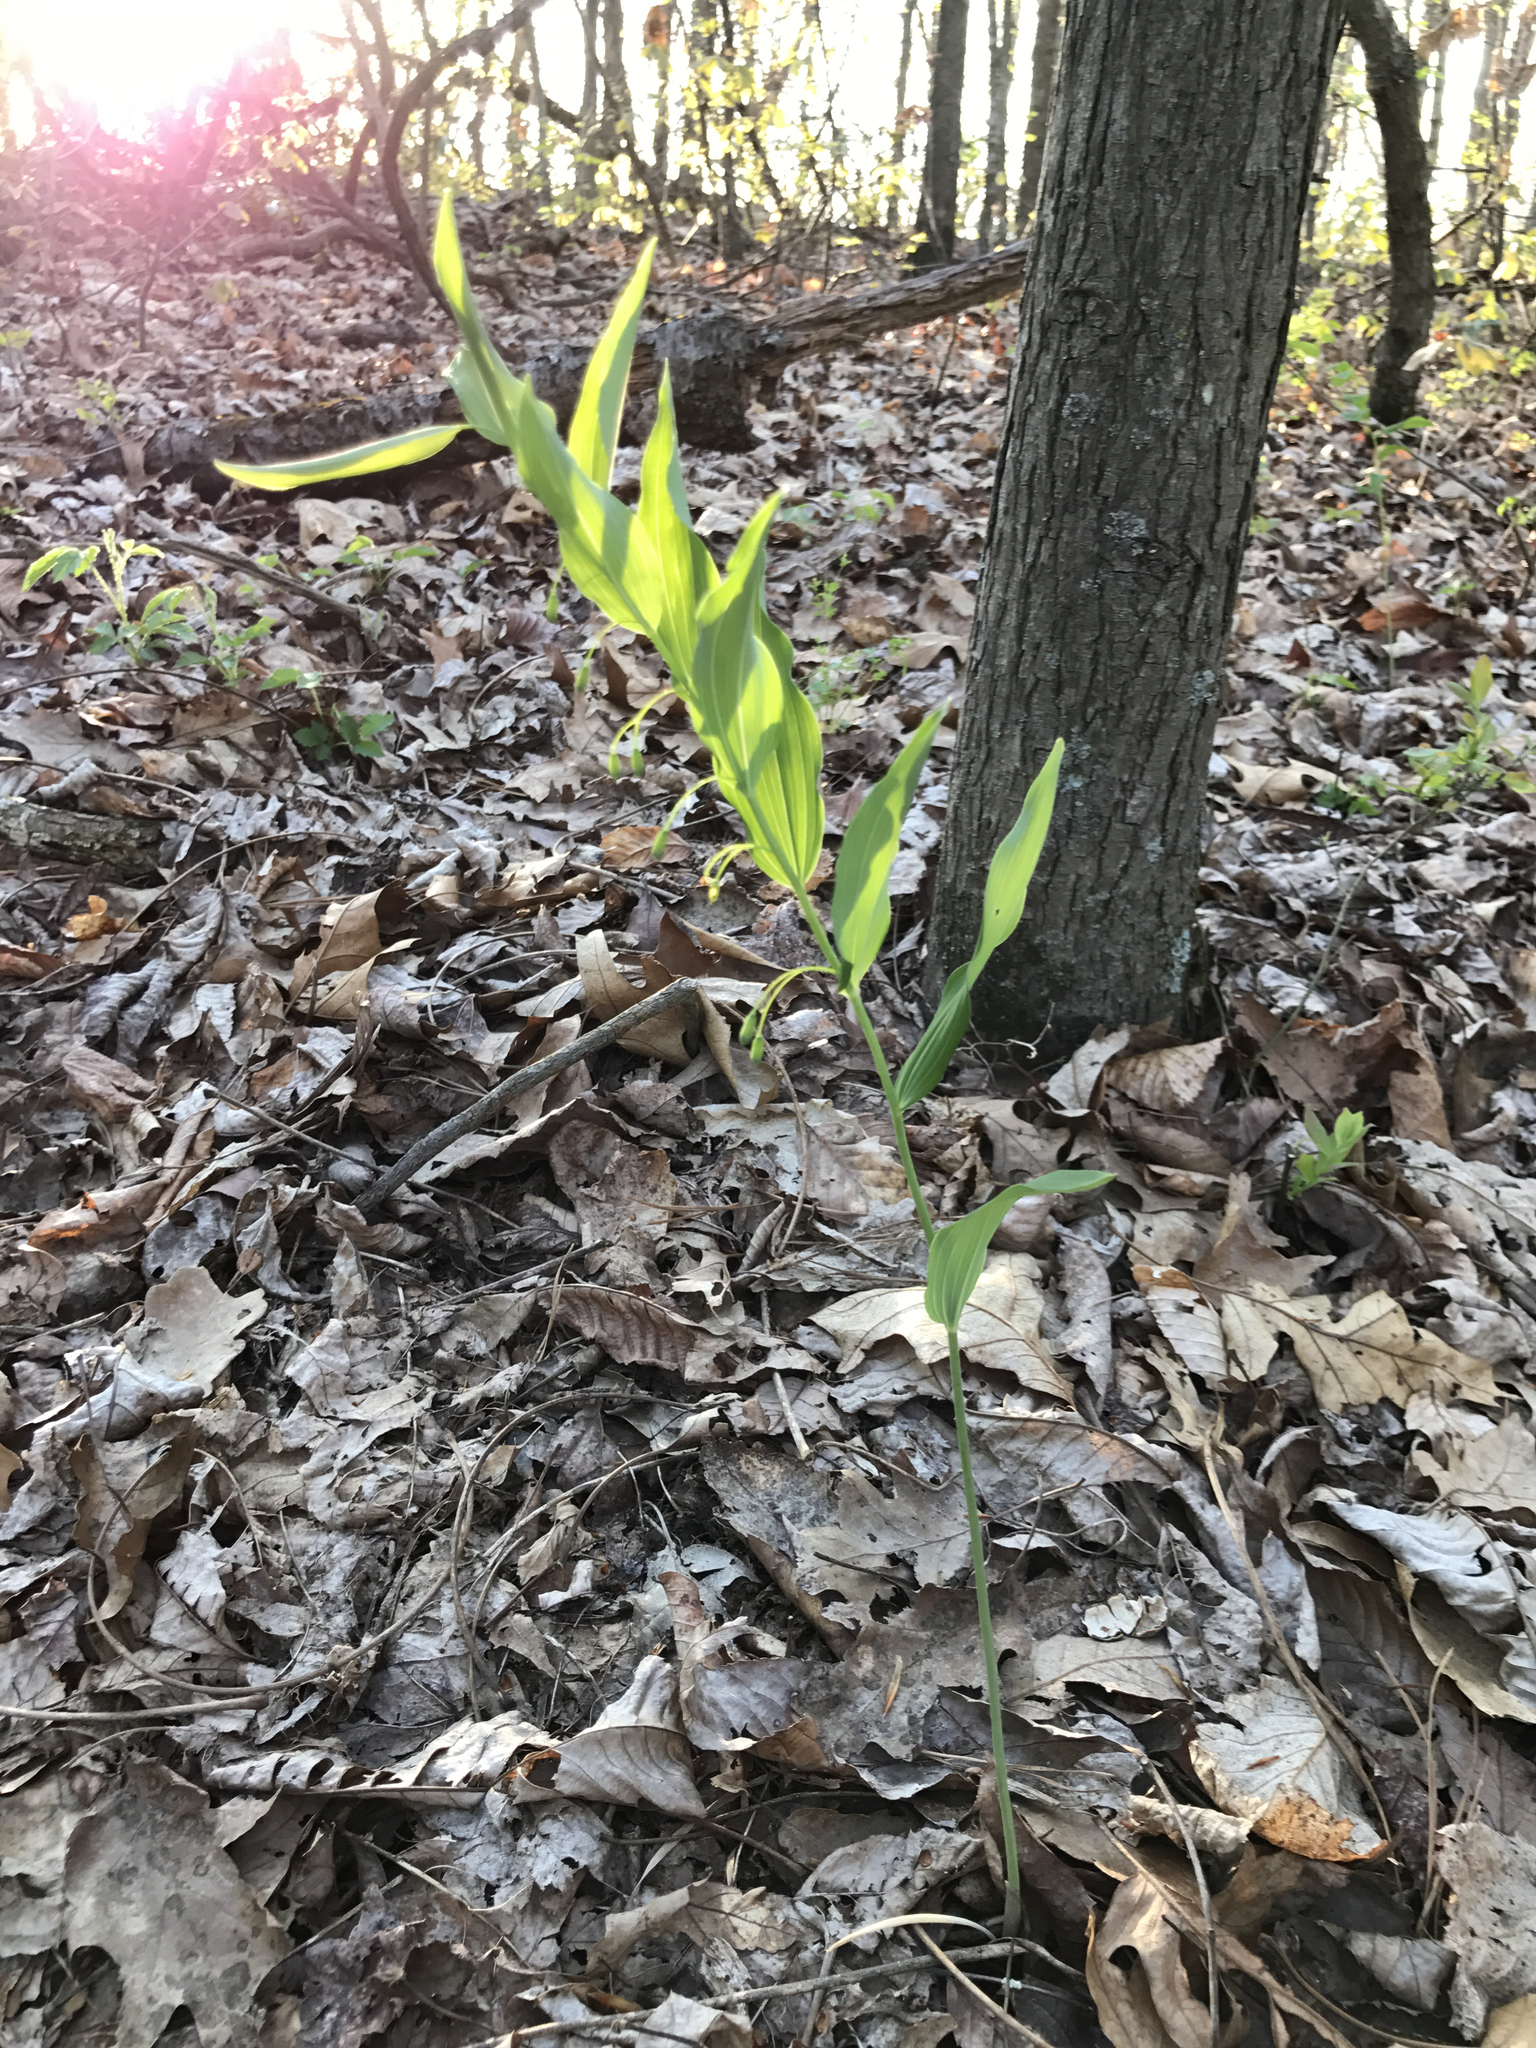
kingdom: Plantae
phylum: Tracheophyta
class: Liliopsida
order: Asparagales
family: Asparagaceae
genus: Polygonatum
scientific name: Polygonatum biflorum
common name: American solomon's-seal
